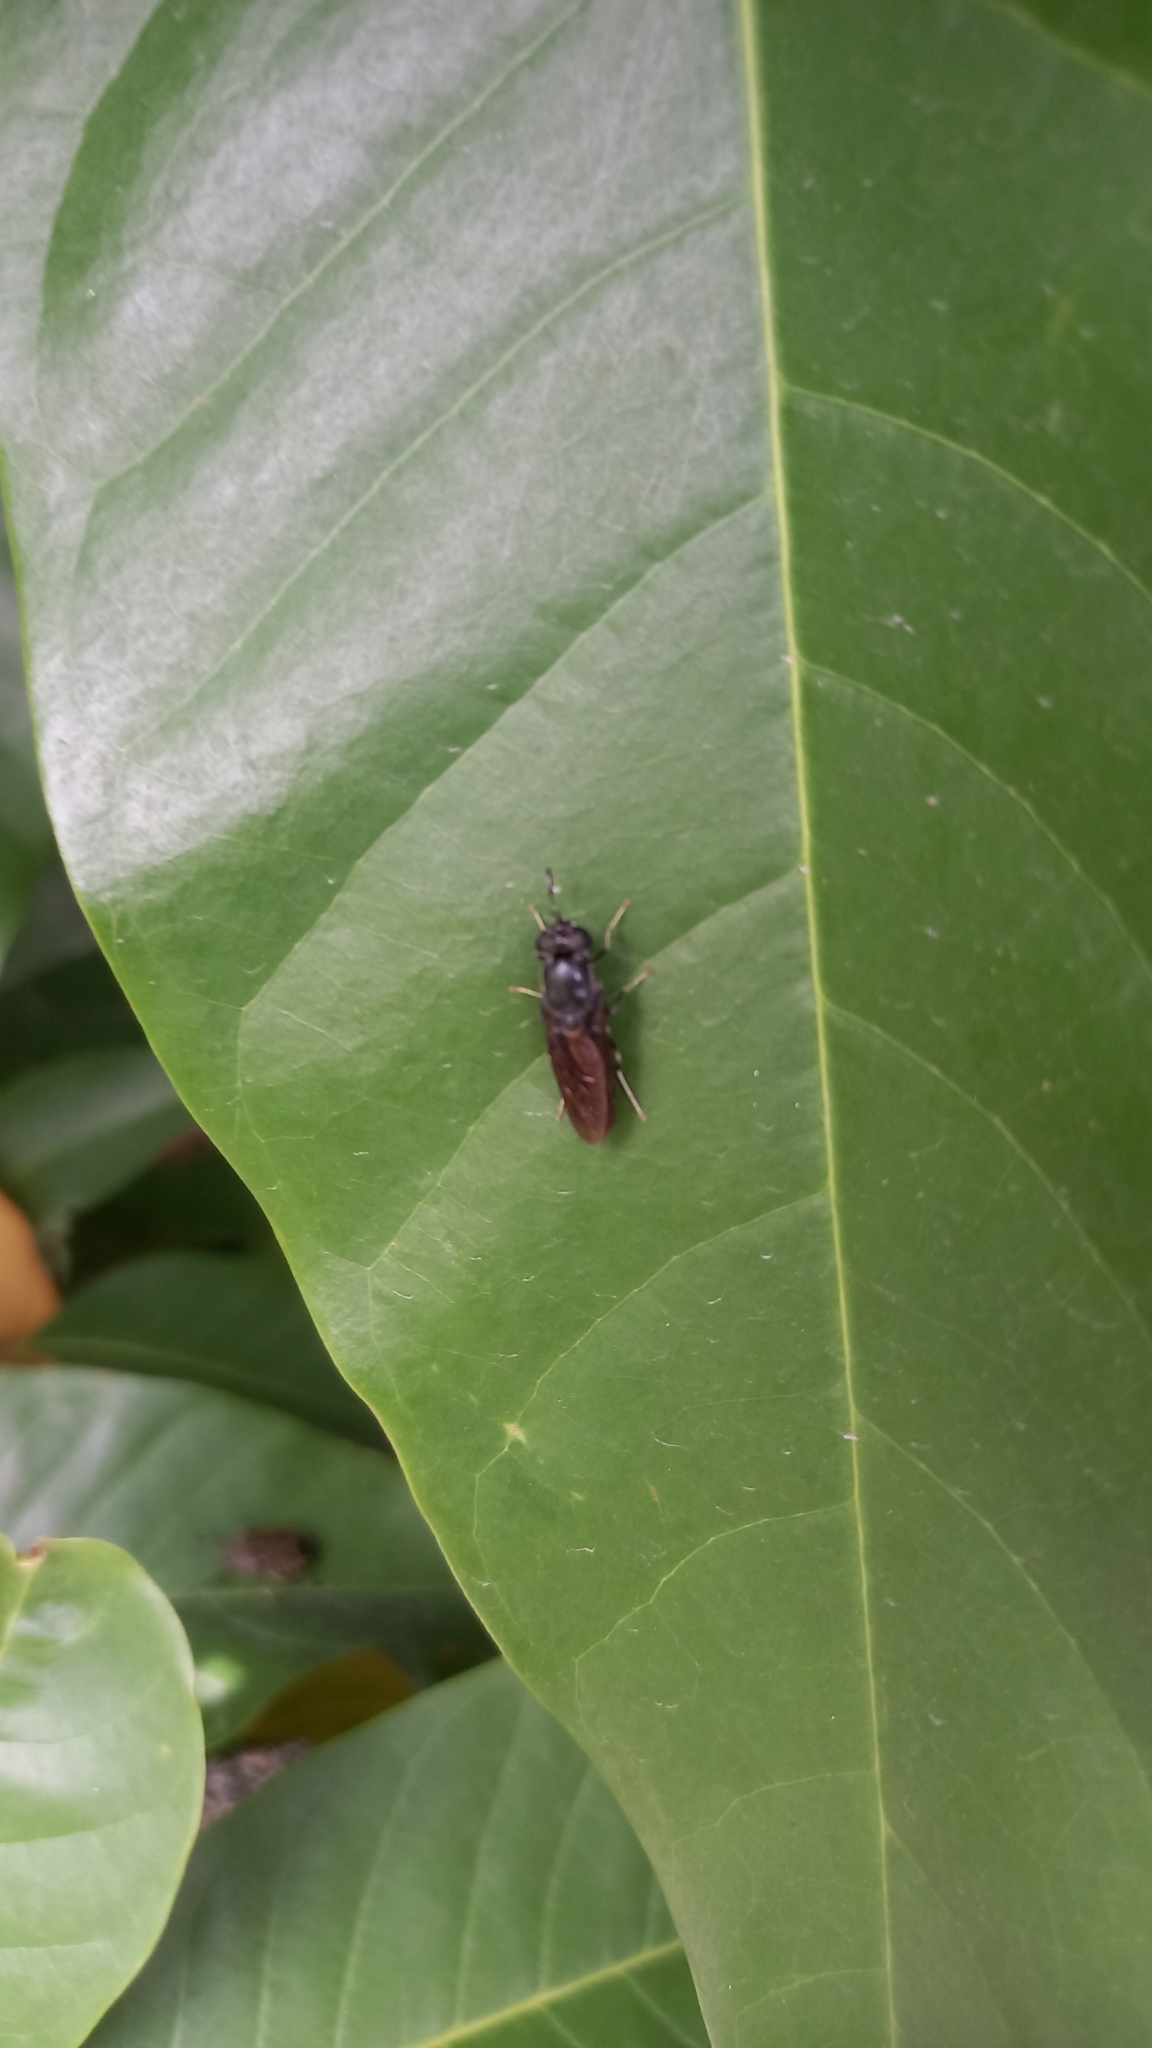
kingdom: Animalia
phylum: Arthropoda
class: Insecta
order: Diptera
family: Stratiomyidae
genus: Hermetia
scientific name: Hermetia illucens
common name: Black soldier fly
